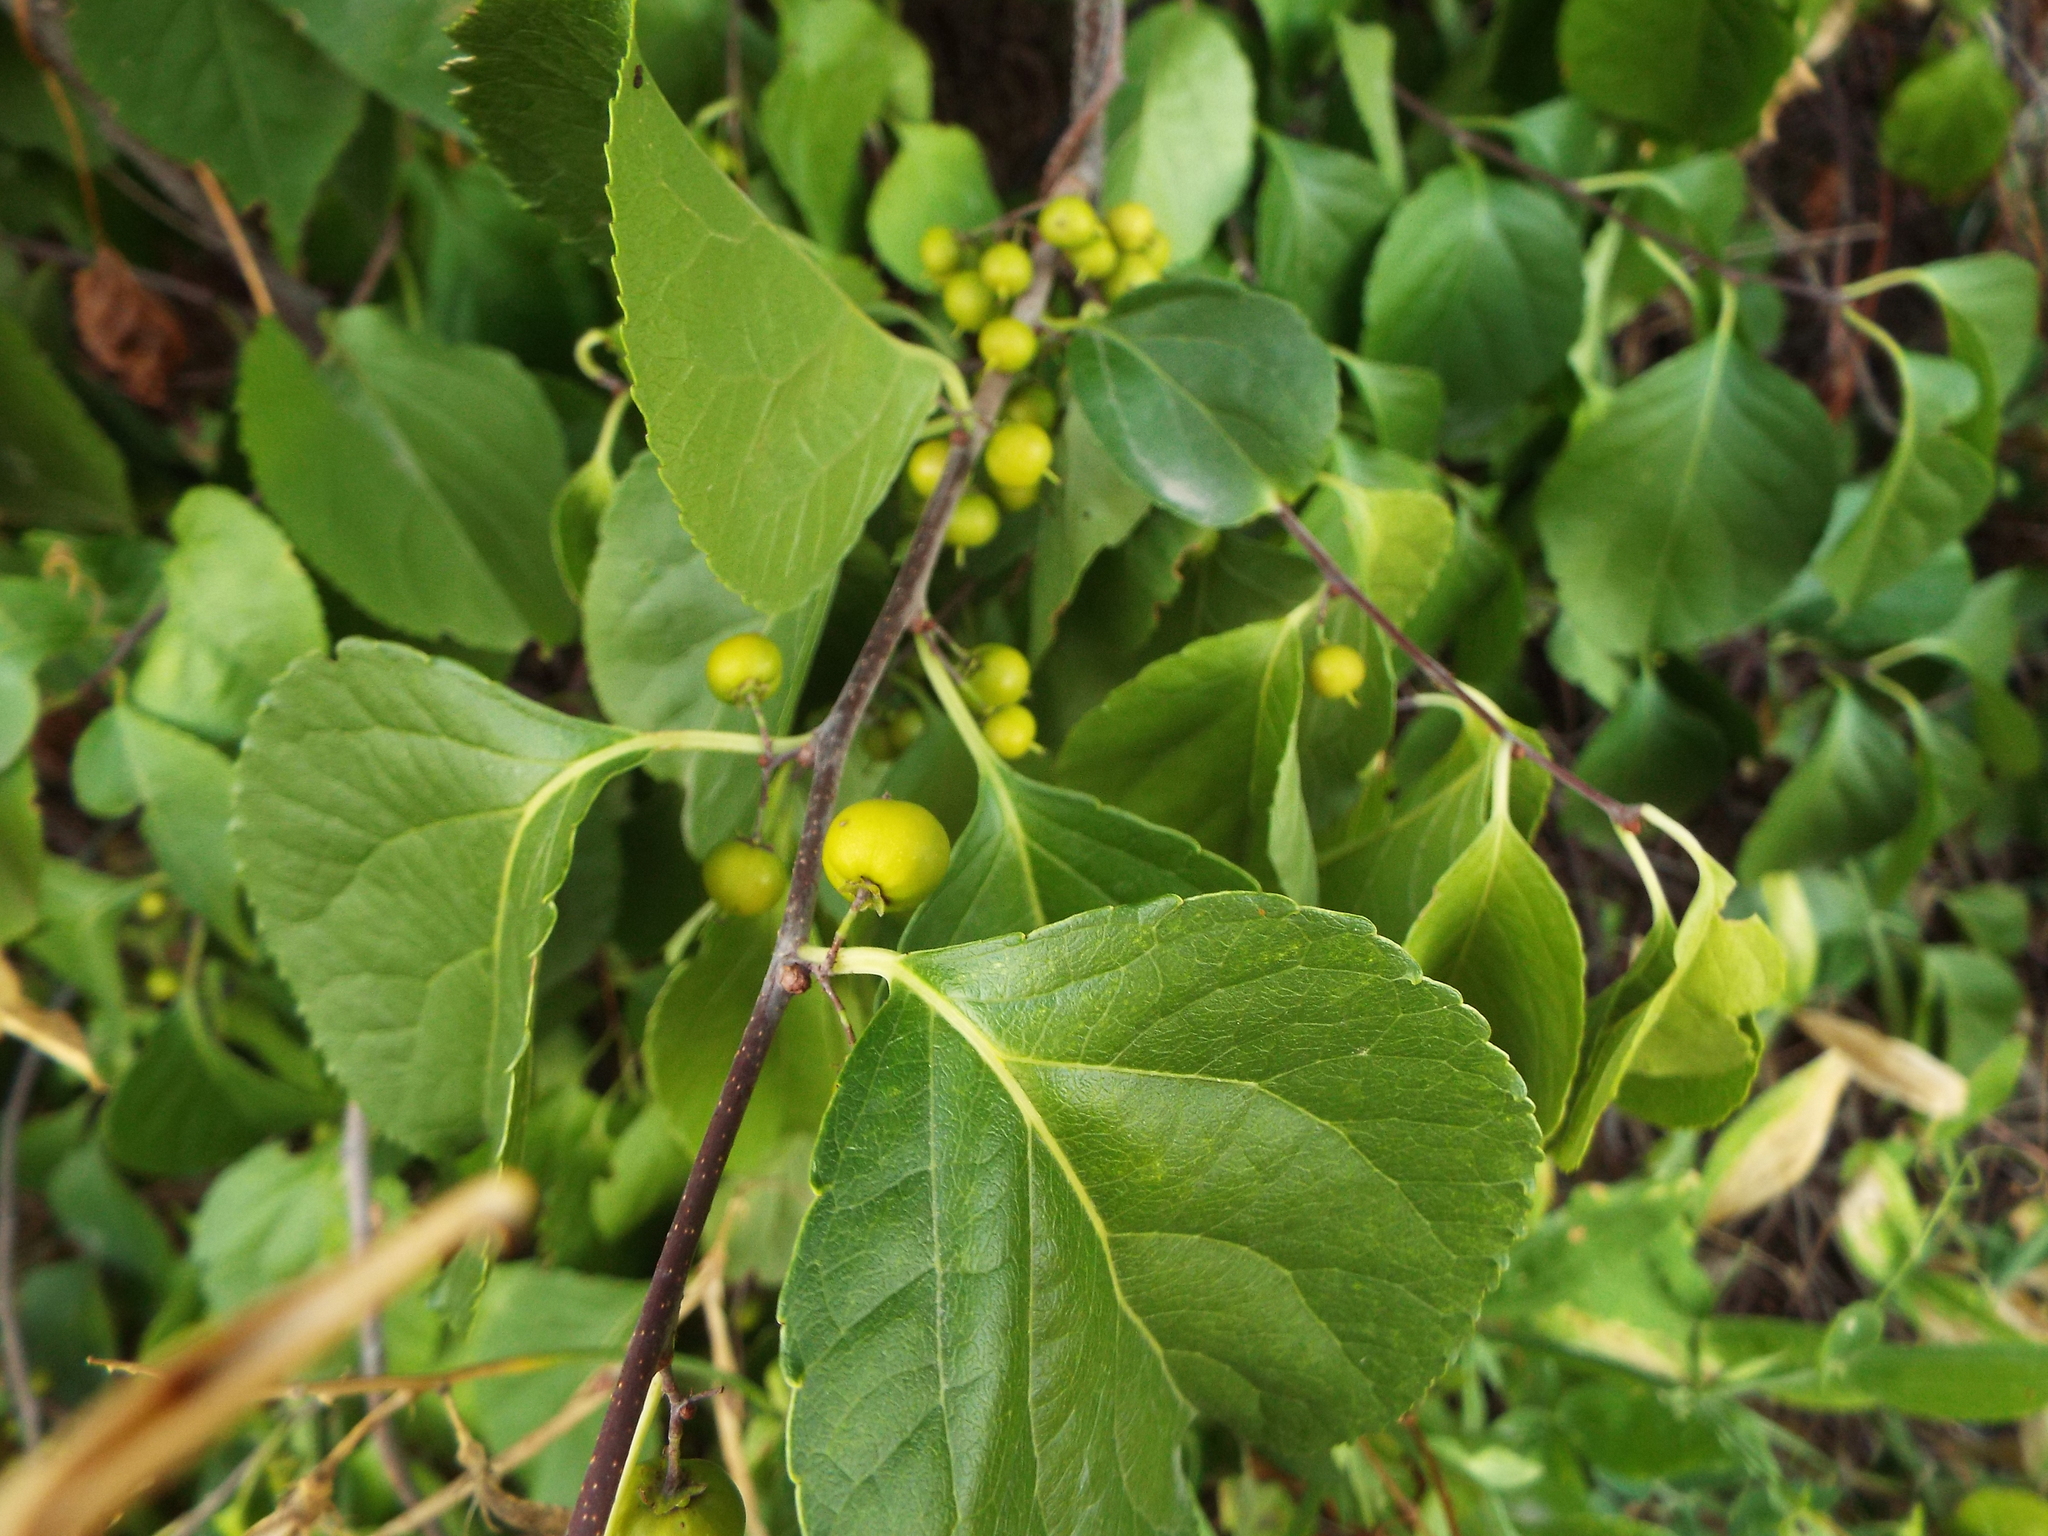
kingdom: Plantae
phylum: Tracheophyta
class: Magnoliopsida
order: Celastrales
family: Celastraceae
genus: Celastrus
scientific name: Celastrus orbiculatus
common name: Oriental bittersweet
